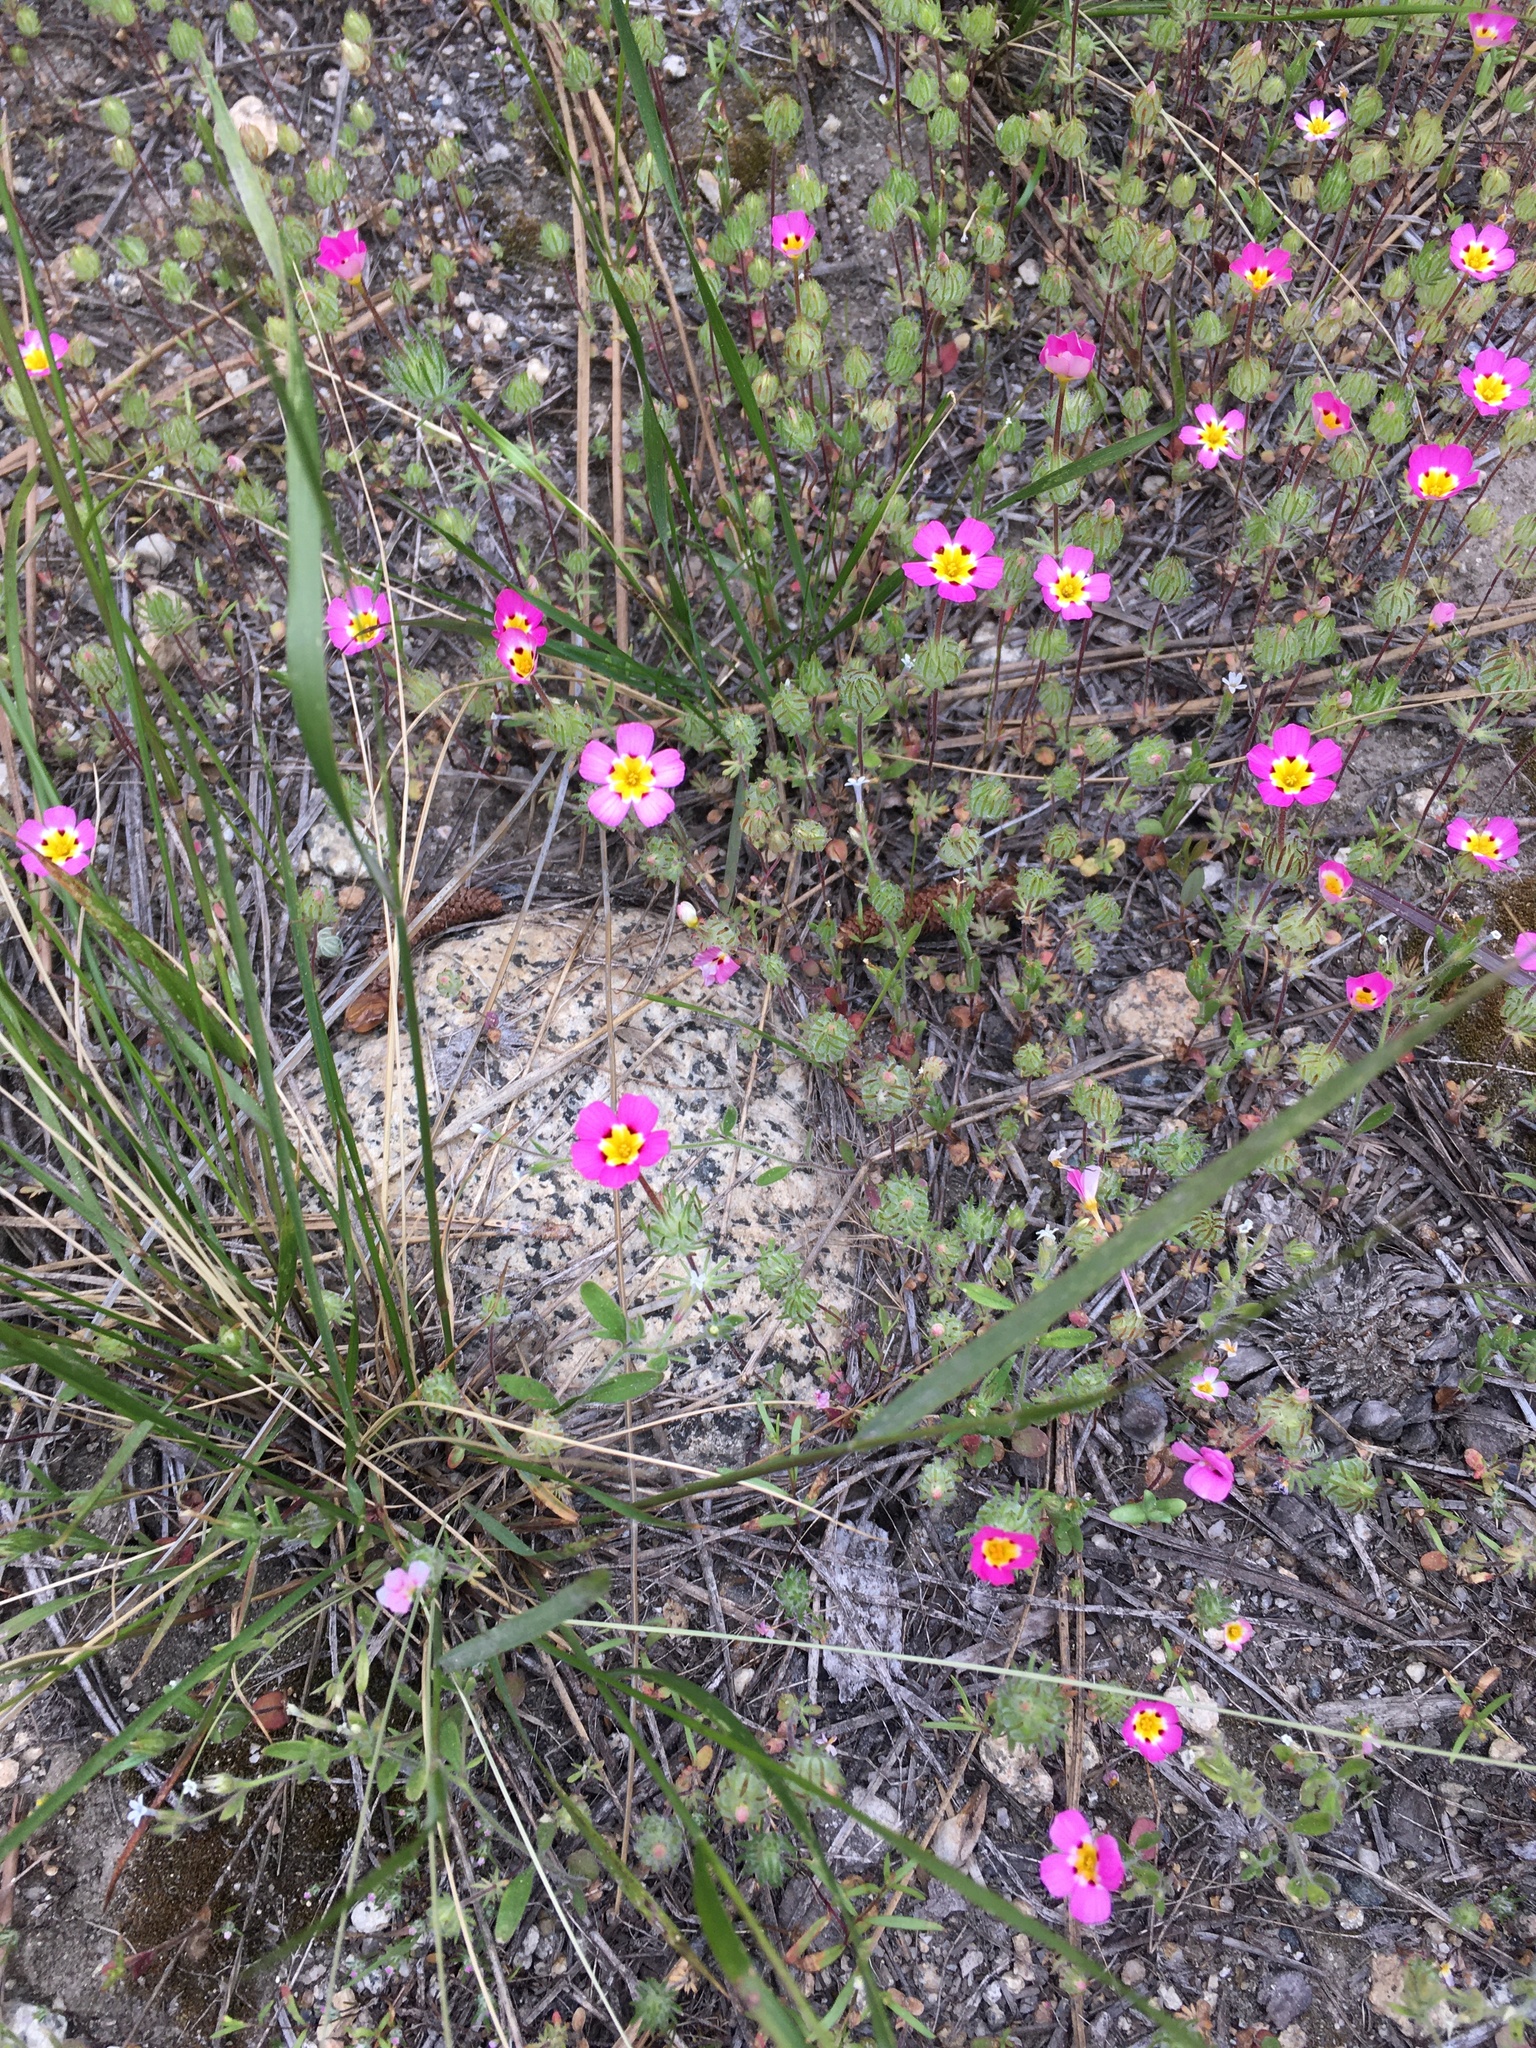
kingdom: Plantae
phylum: Tracheophyta
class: Magnoliopsida
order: Ericales
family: Polemoniaceae
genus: Leptosiphon
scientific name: Leptosiphon ciliatus
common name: Whiskerbrush
